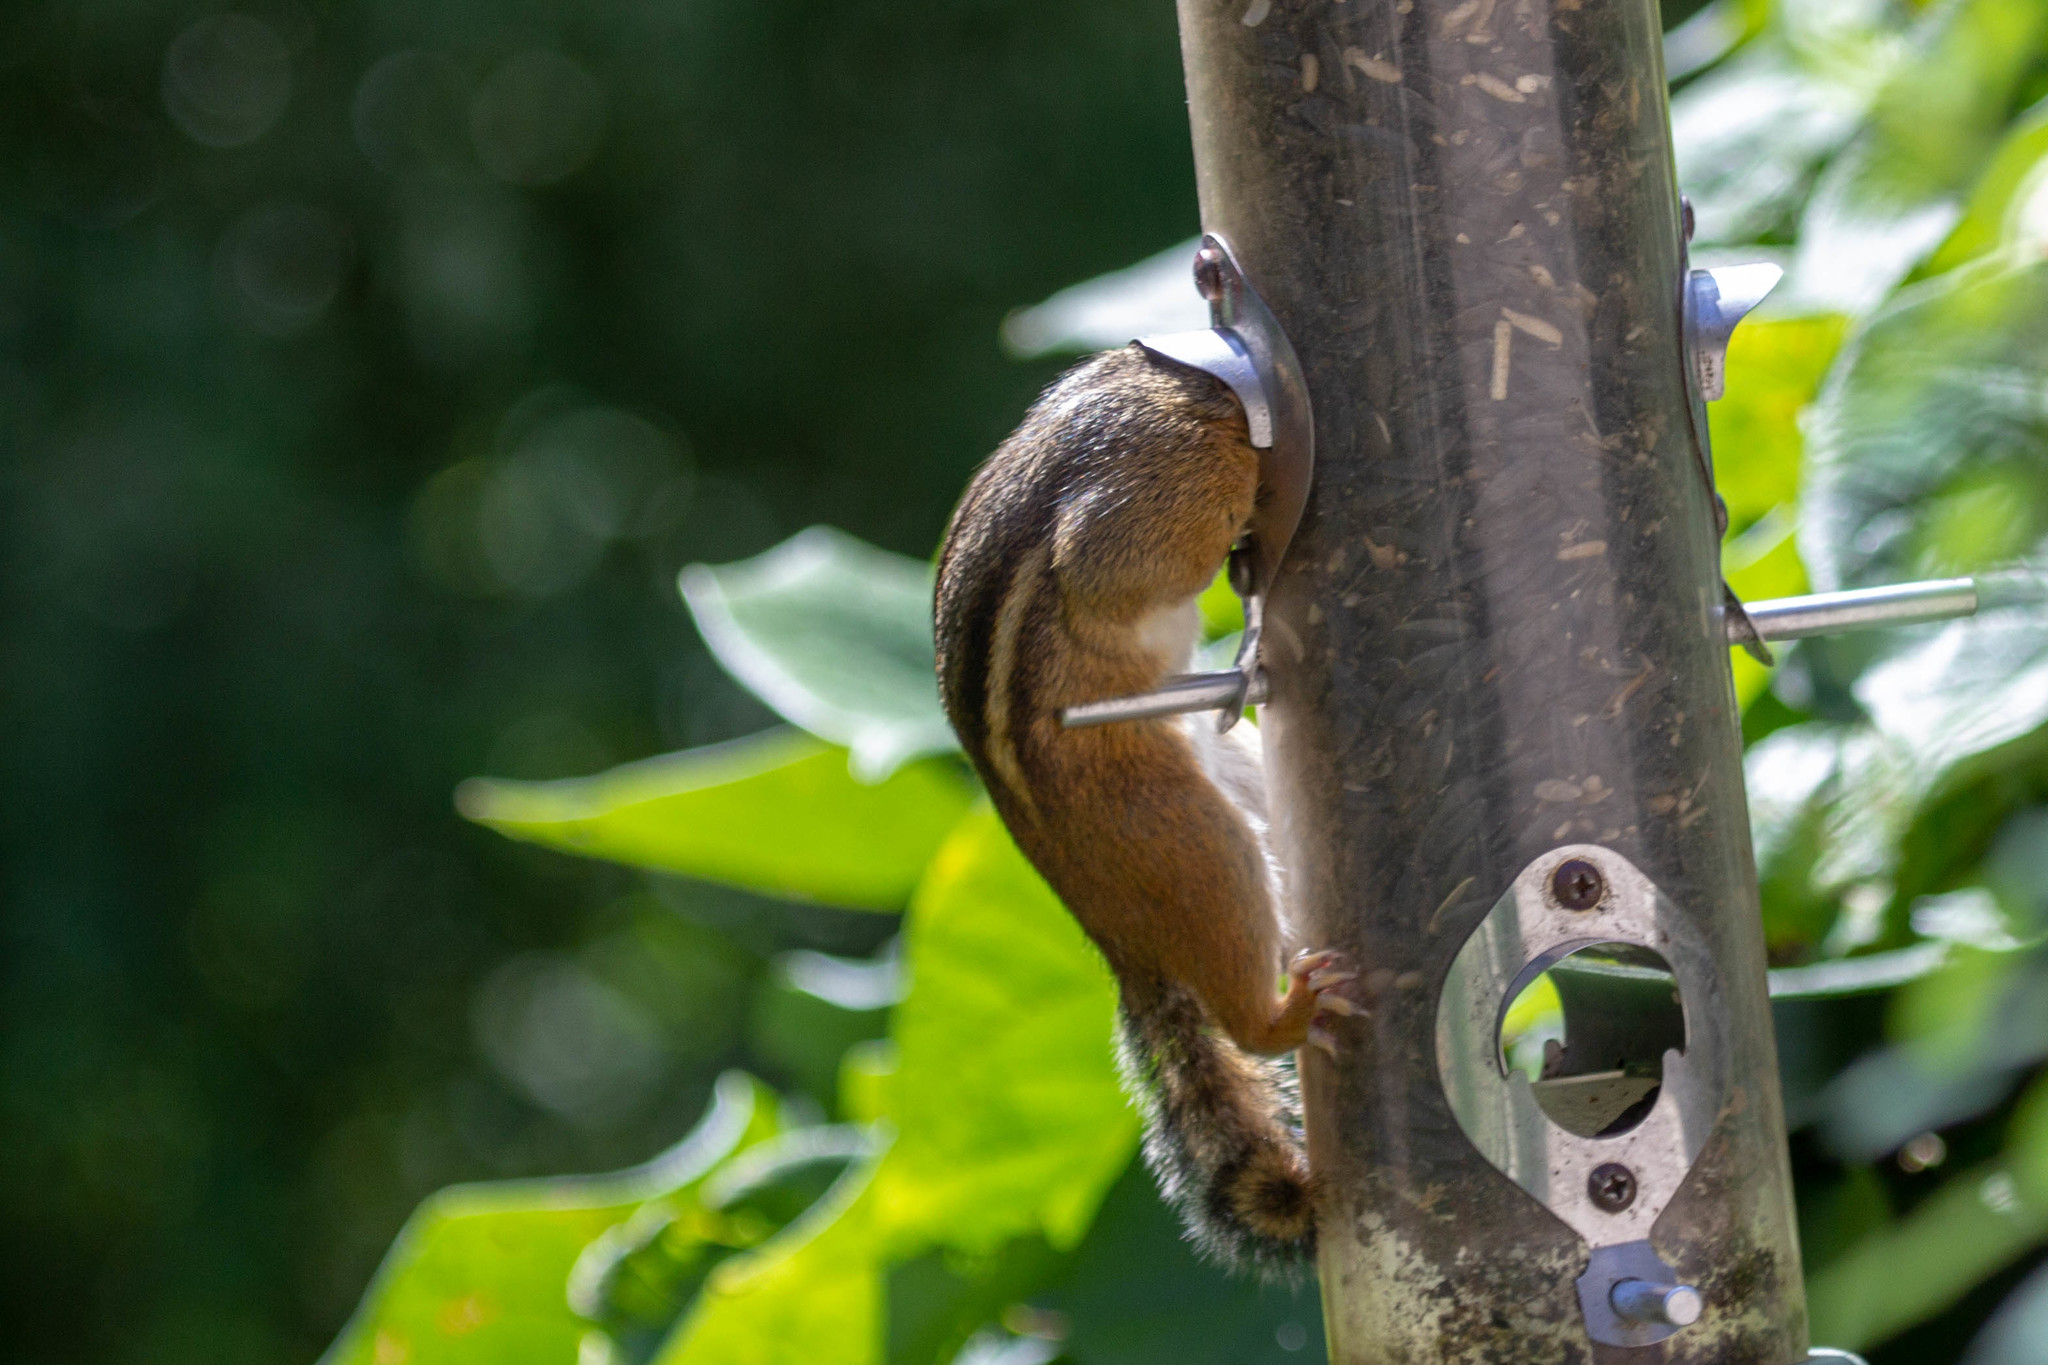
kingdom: Animalia
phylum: Chordata
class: Mammalia
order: Rodentia
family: Sciuridae
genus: Tamias
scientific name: Tamias striatus
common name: Eastern chipmunk
